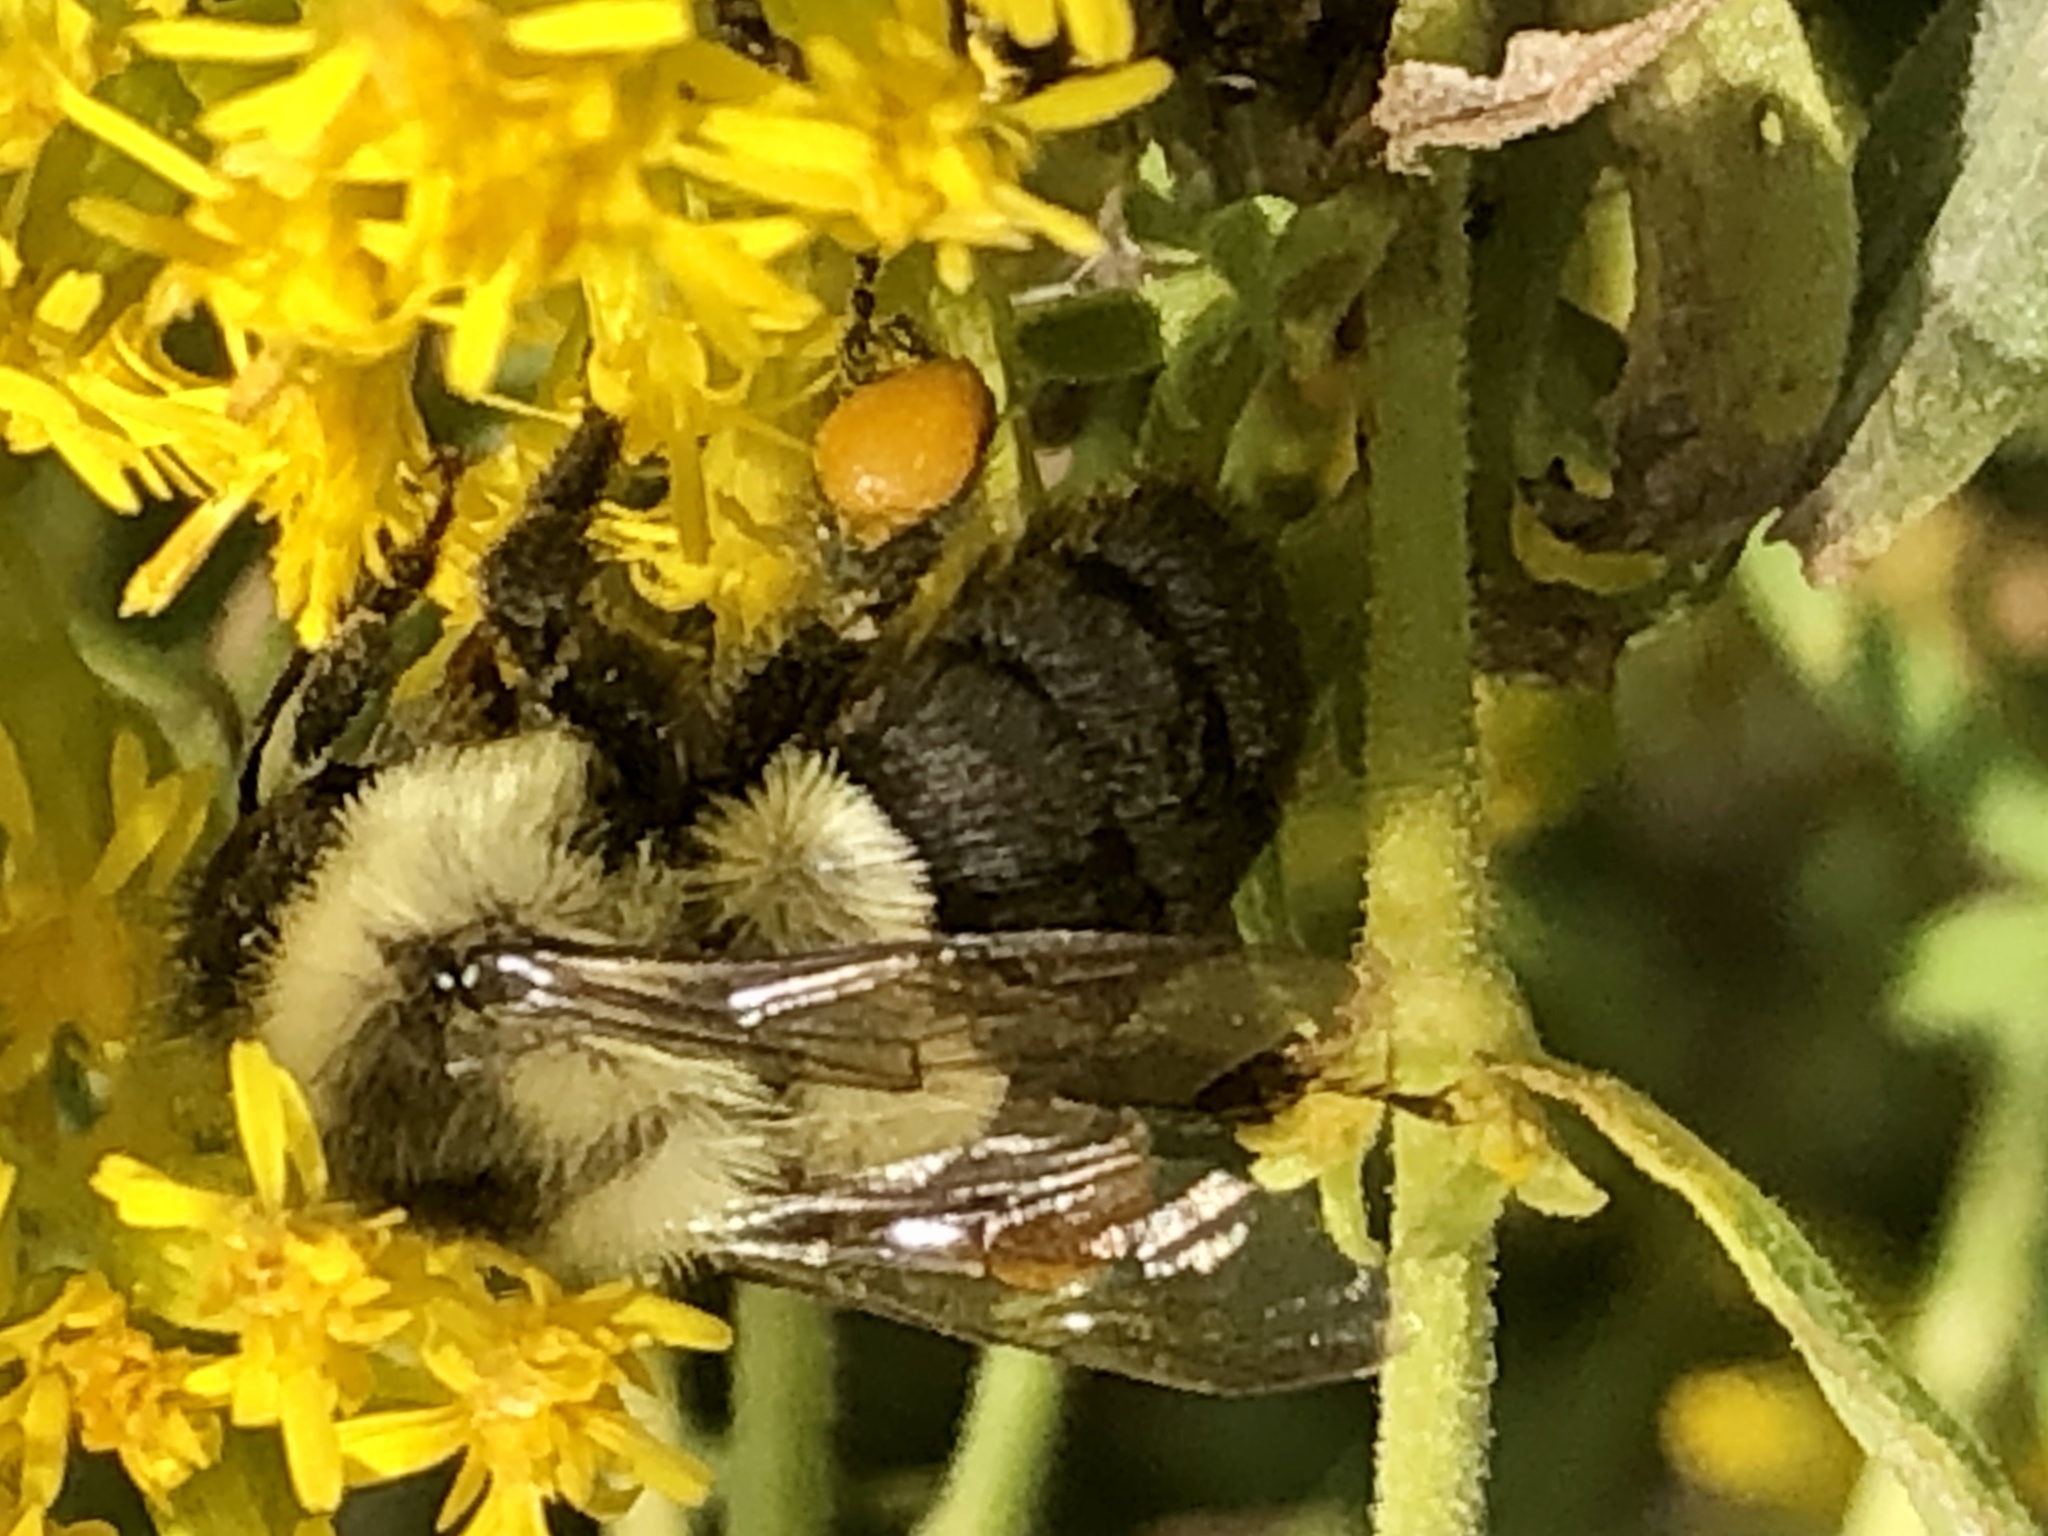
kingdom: Animalia
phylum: Arthropoda
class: Insecta
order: Hymenoptera
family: Apidae
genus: Bombus
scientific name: Bombus impatiens
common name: Common eastern bumble bee
